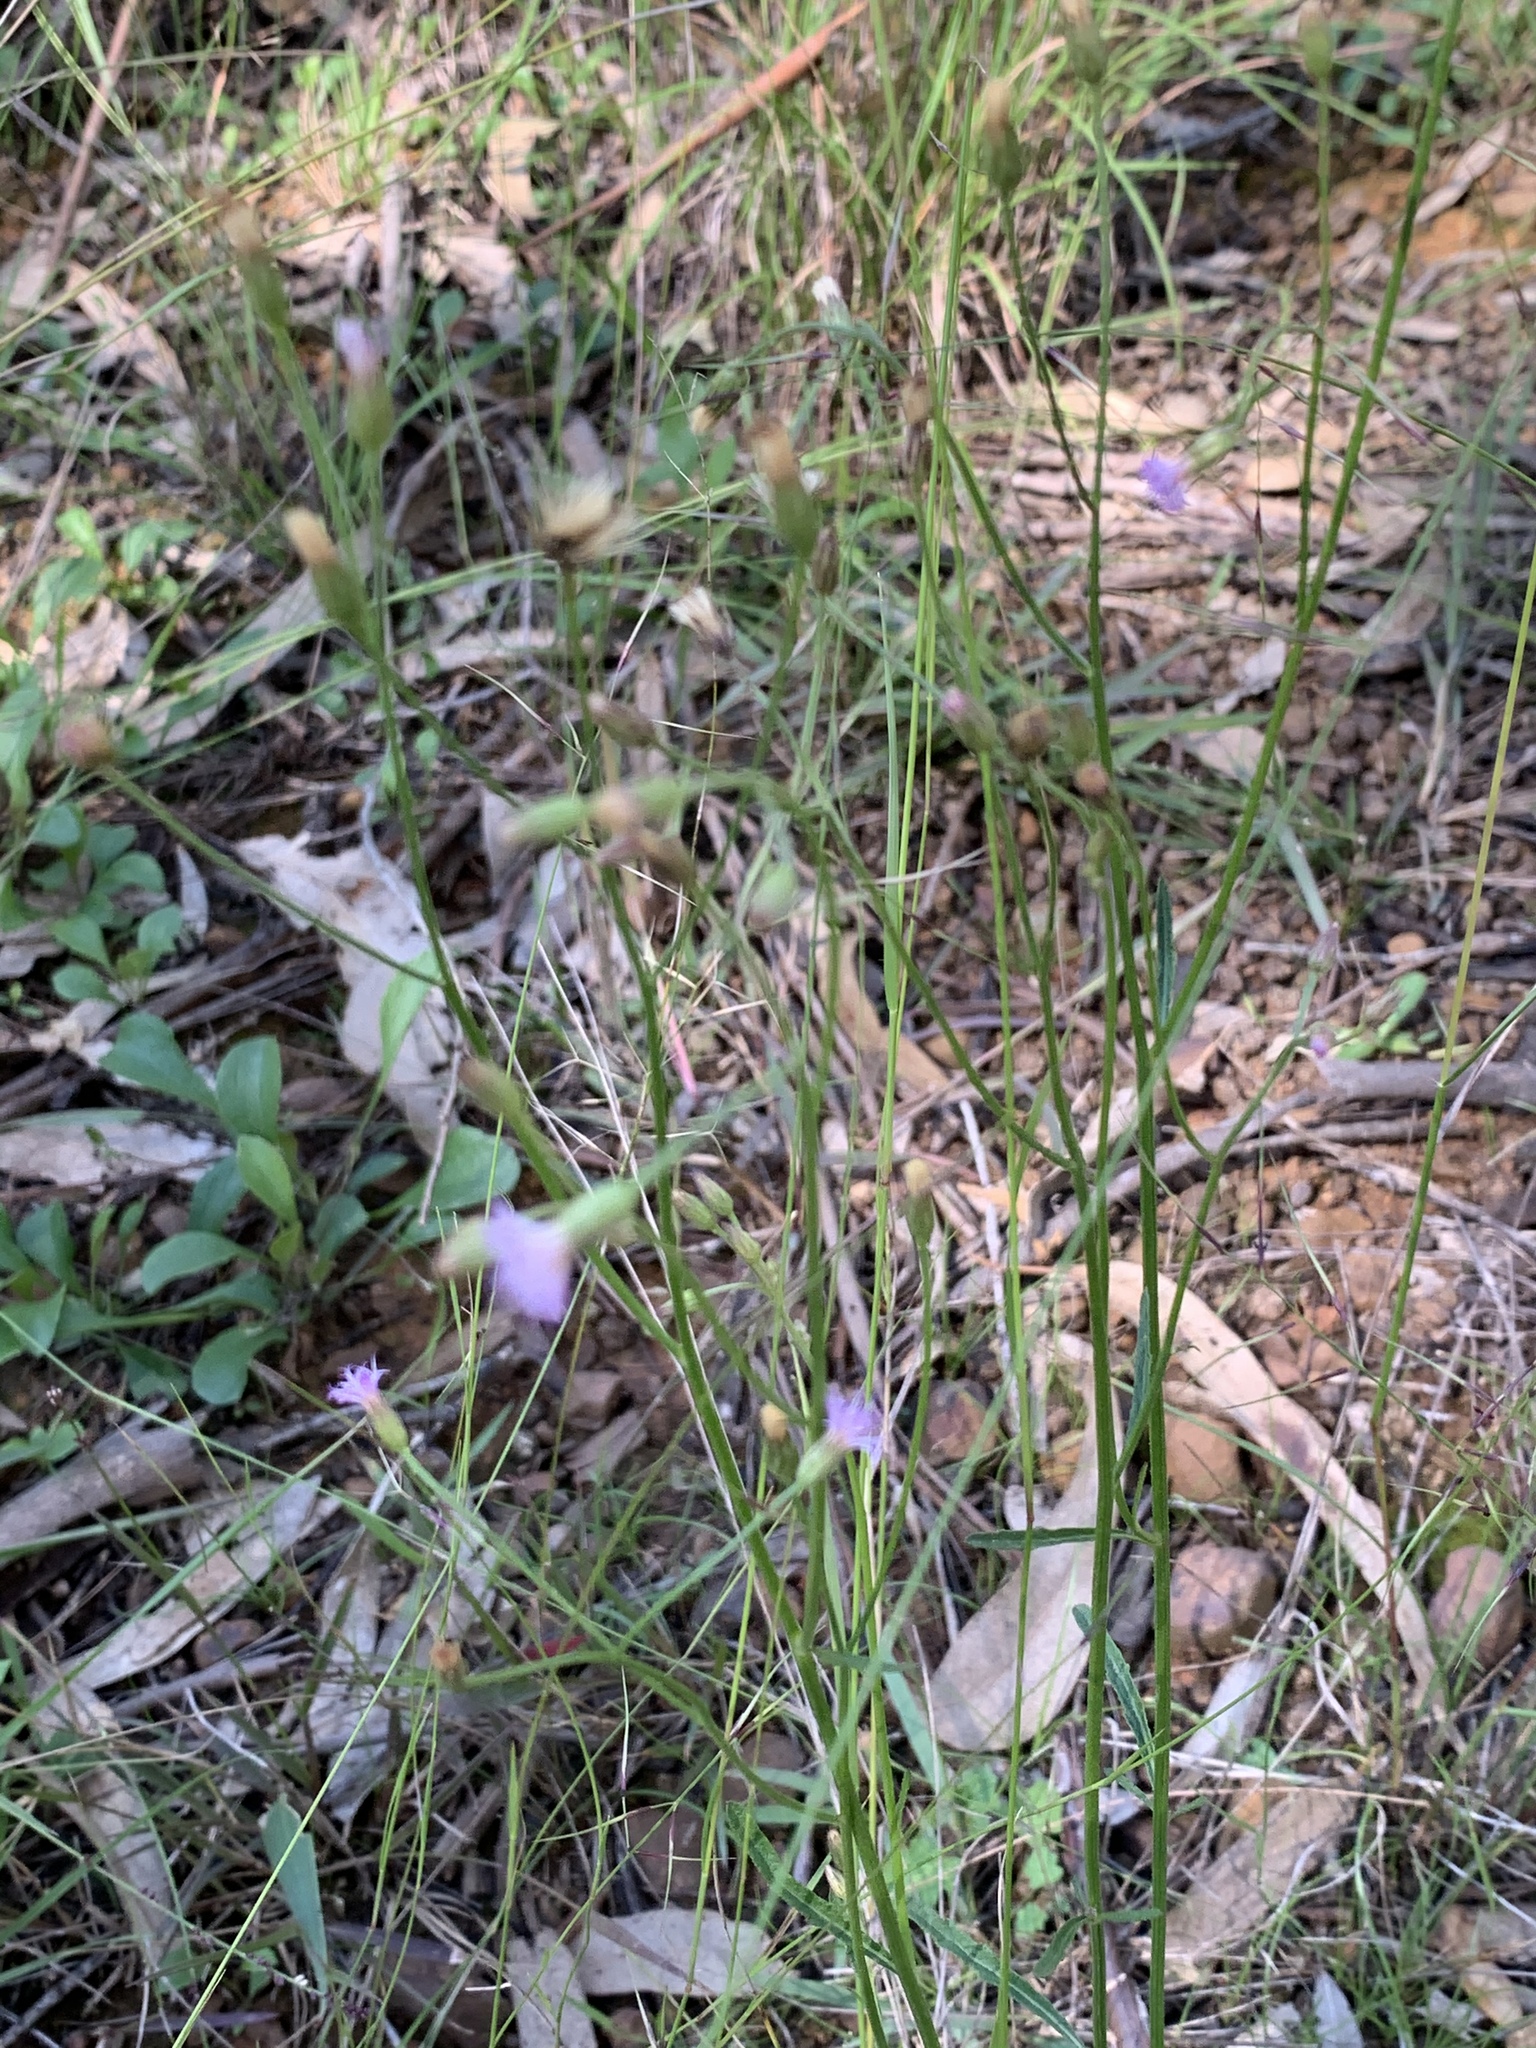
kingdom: Plantae
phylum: Tracheophyta
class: Magnoliopsida
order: Asterales
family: Asteraceae
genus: Cyanthillium
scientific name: Cyanthillium cinereum
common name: Little ironweed
